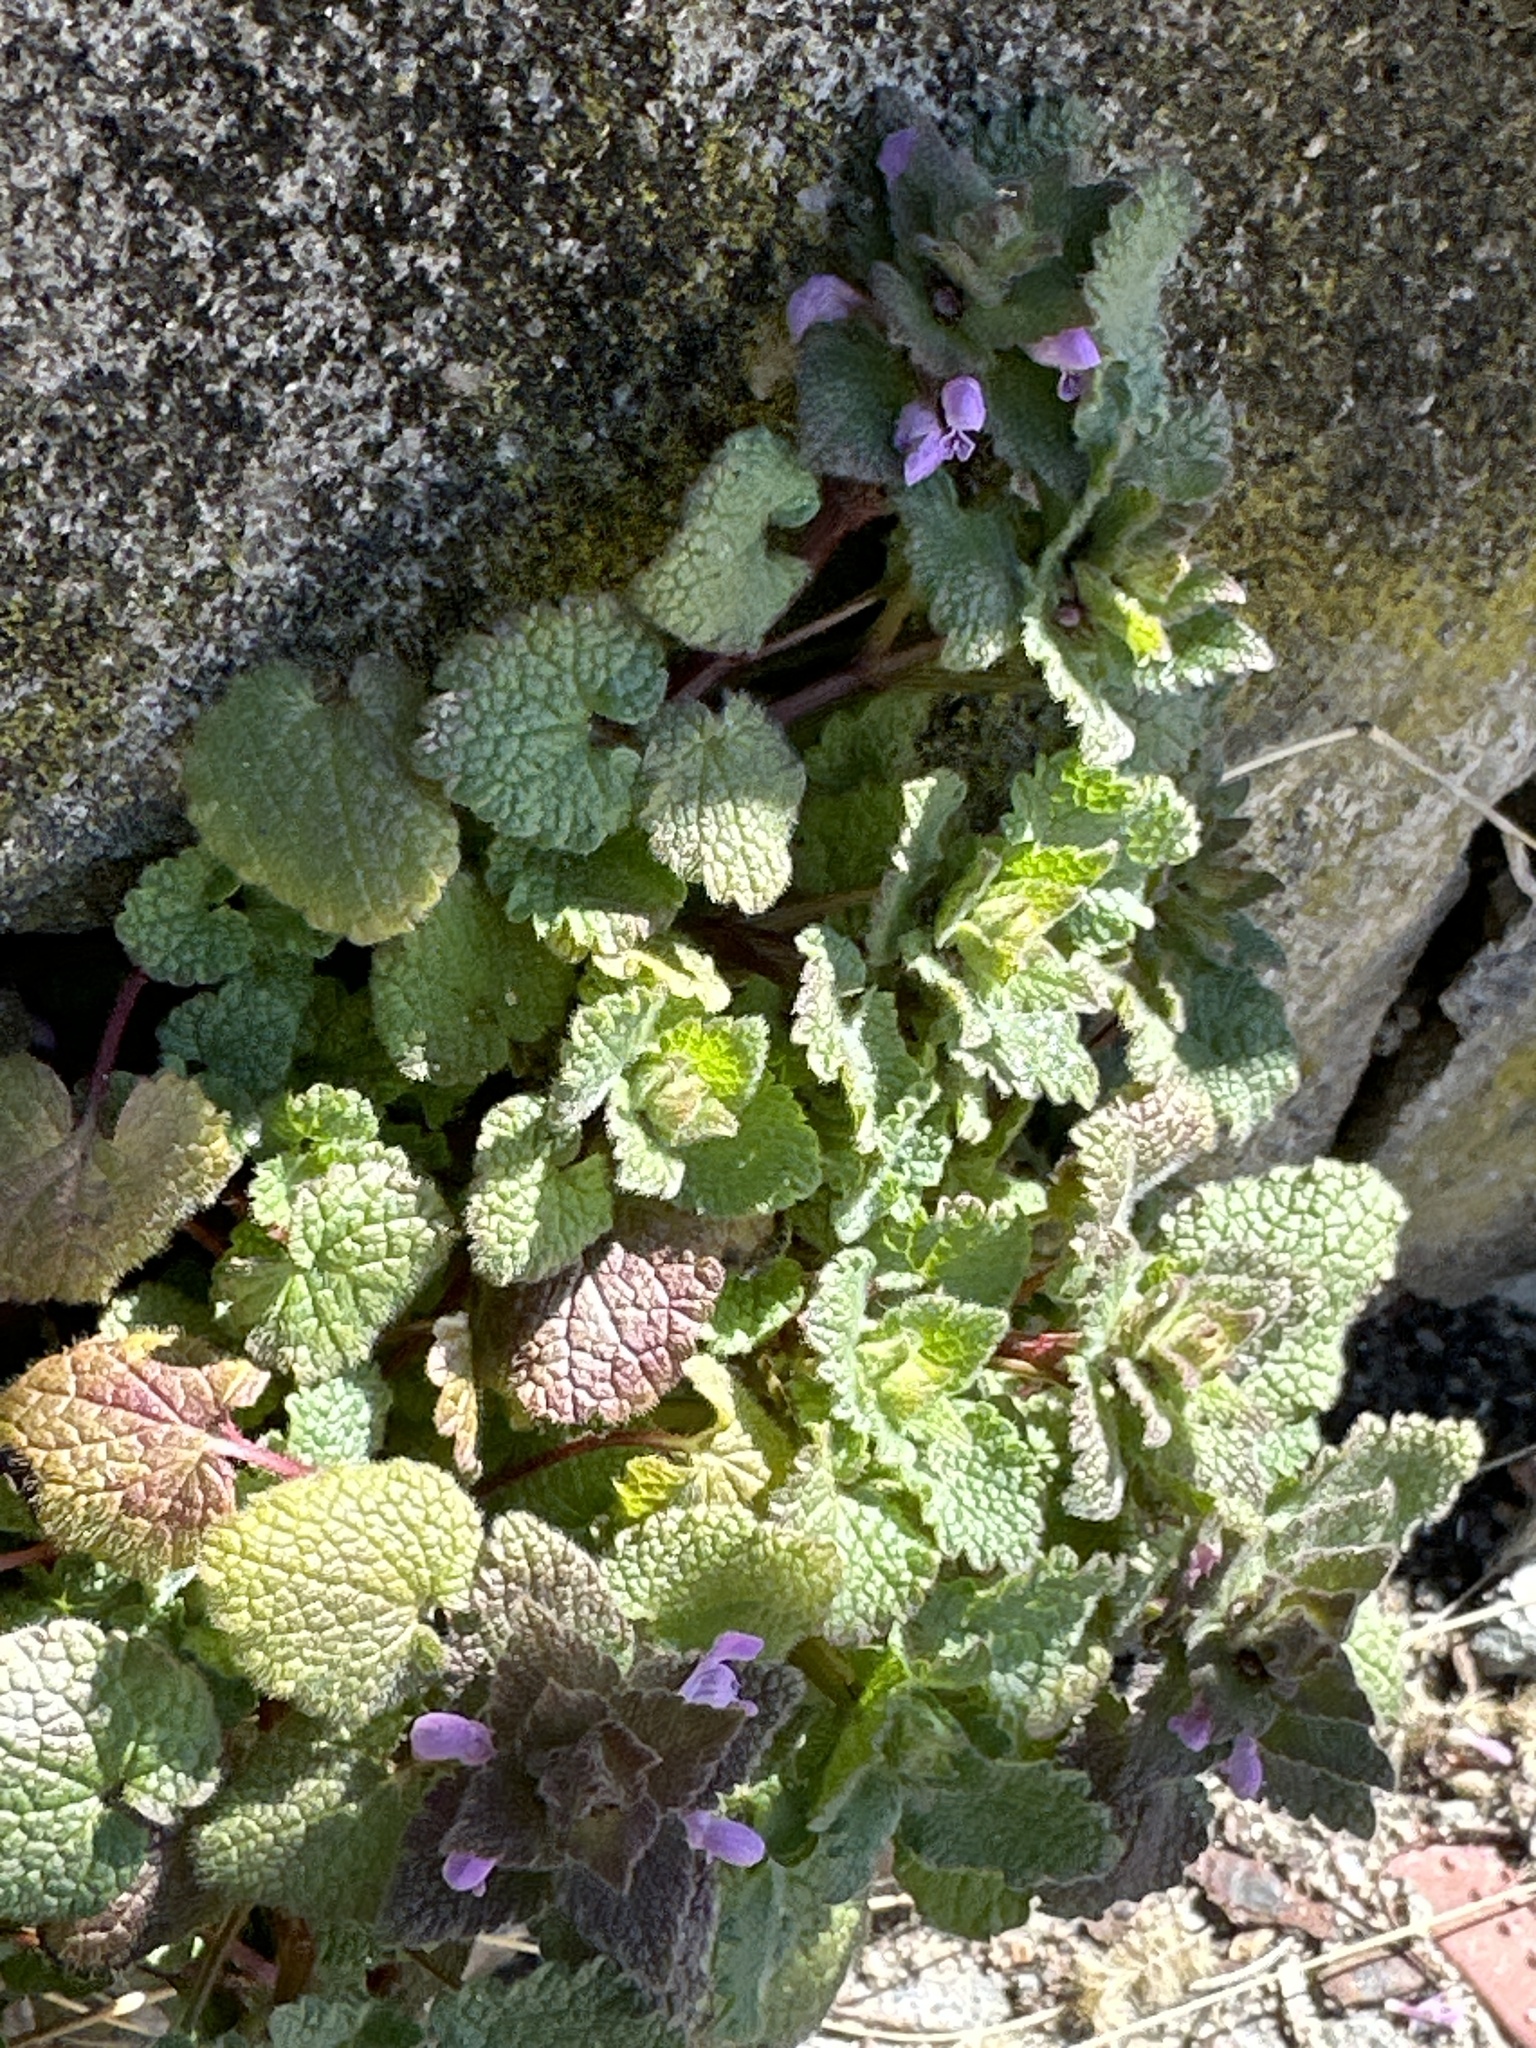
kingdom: Plantae
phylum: Tracheophyta
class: Magnoliopsida
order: Lamiales
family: Lamiaceae
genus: Lamium
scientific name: Lamium purpureum
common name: Red dead-nettle
